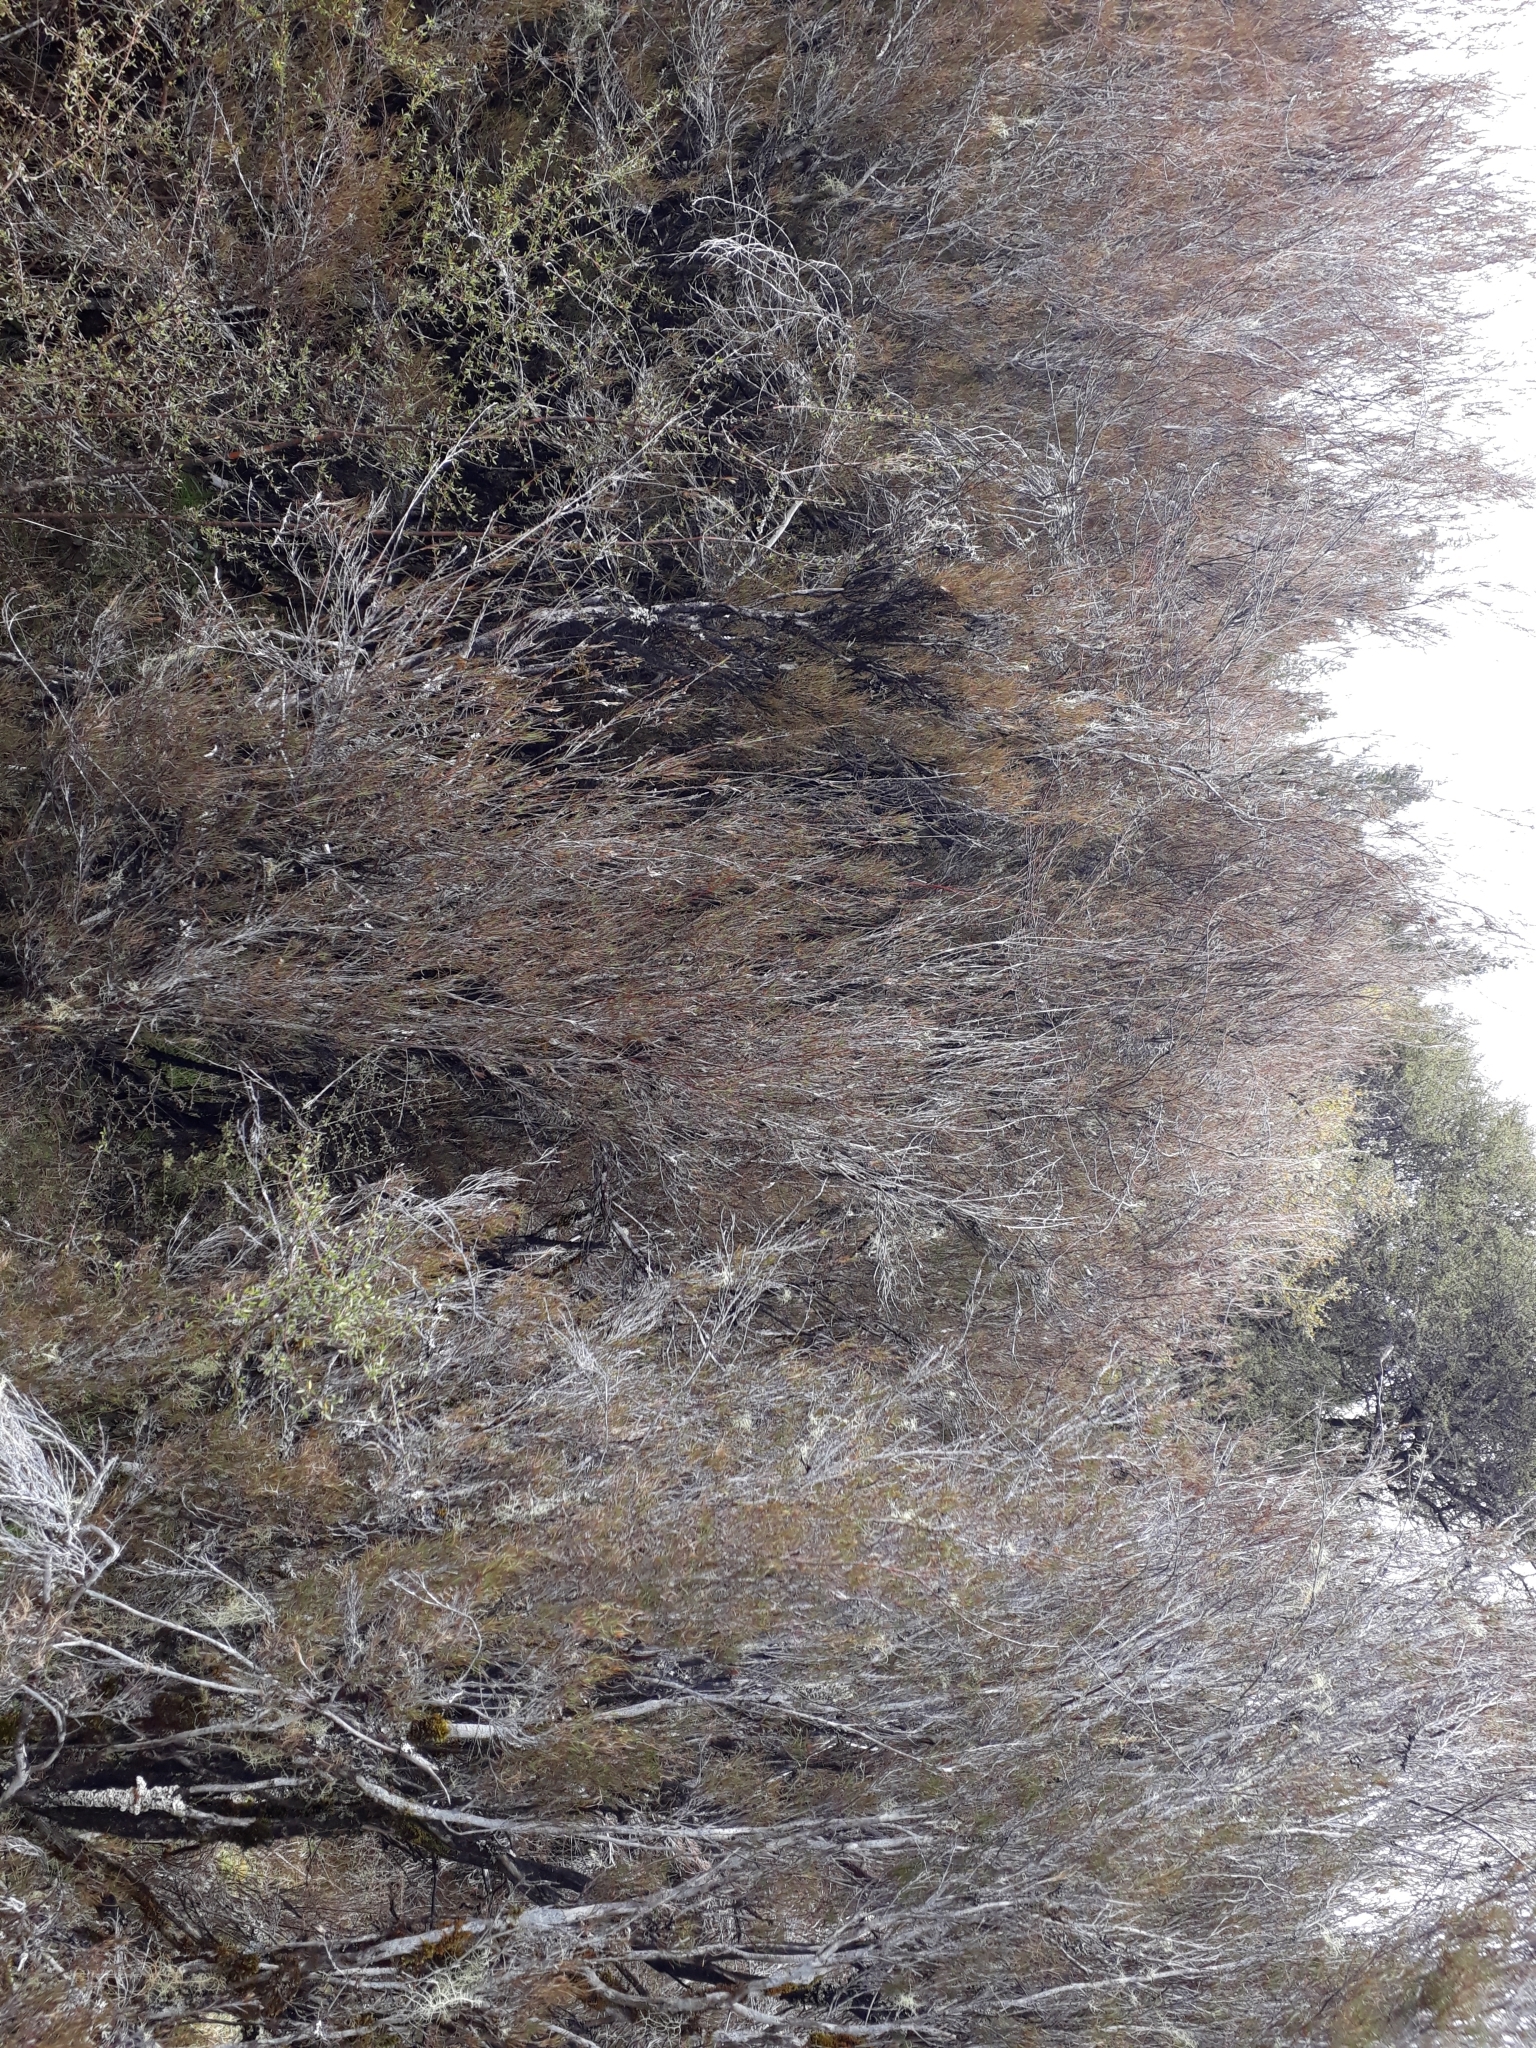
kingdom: Plantae
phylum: Tracheophyta
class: Magnoliopsida
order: Ericales
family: Ericaceae
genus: Dracophyllum
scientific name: Dracophyllum subulatum
